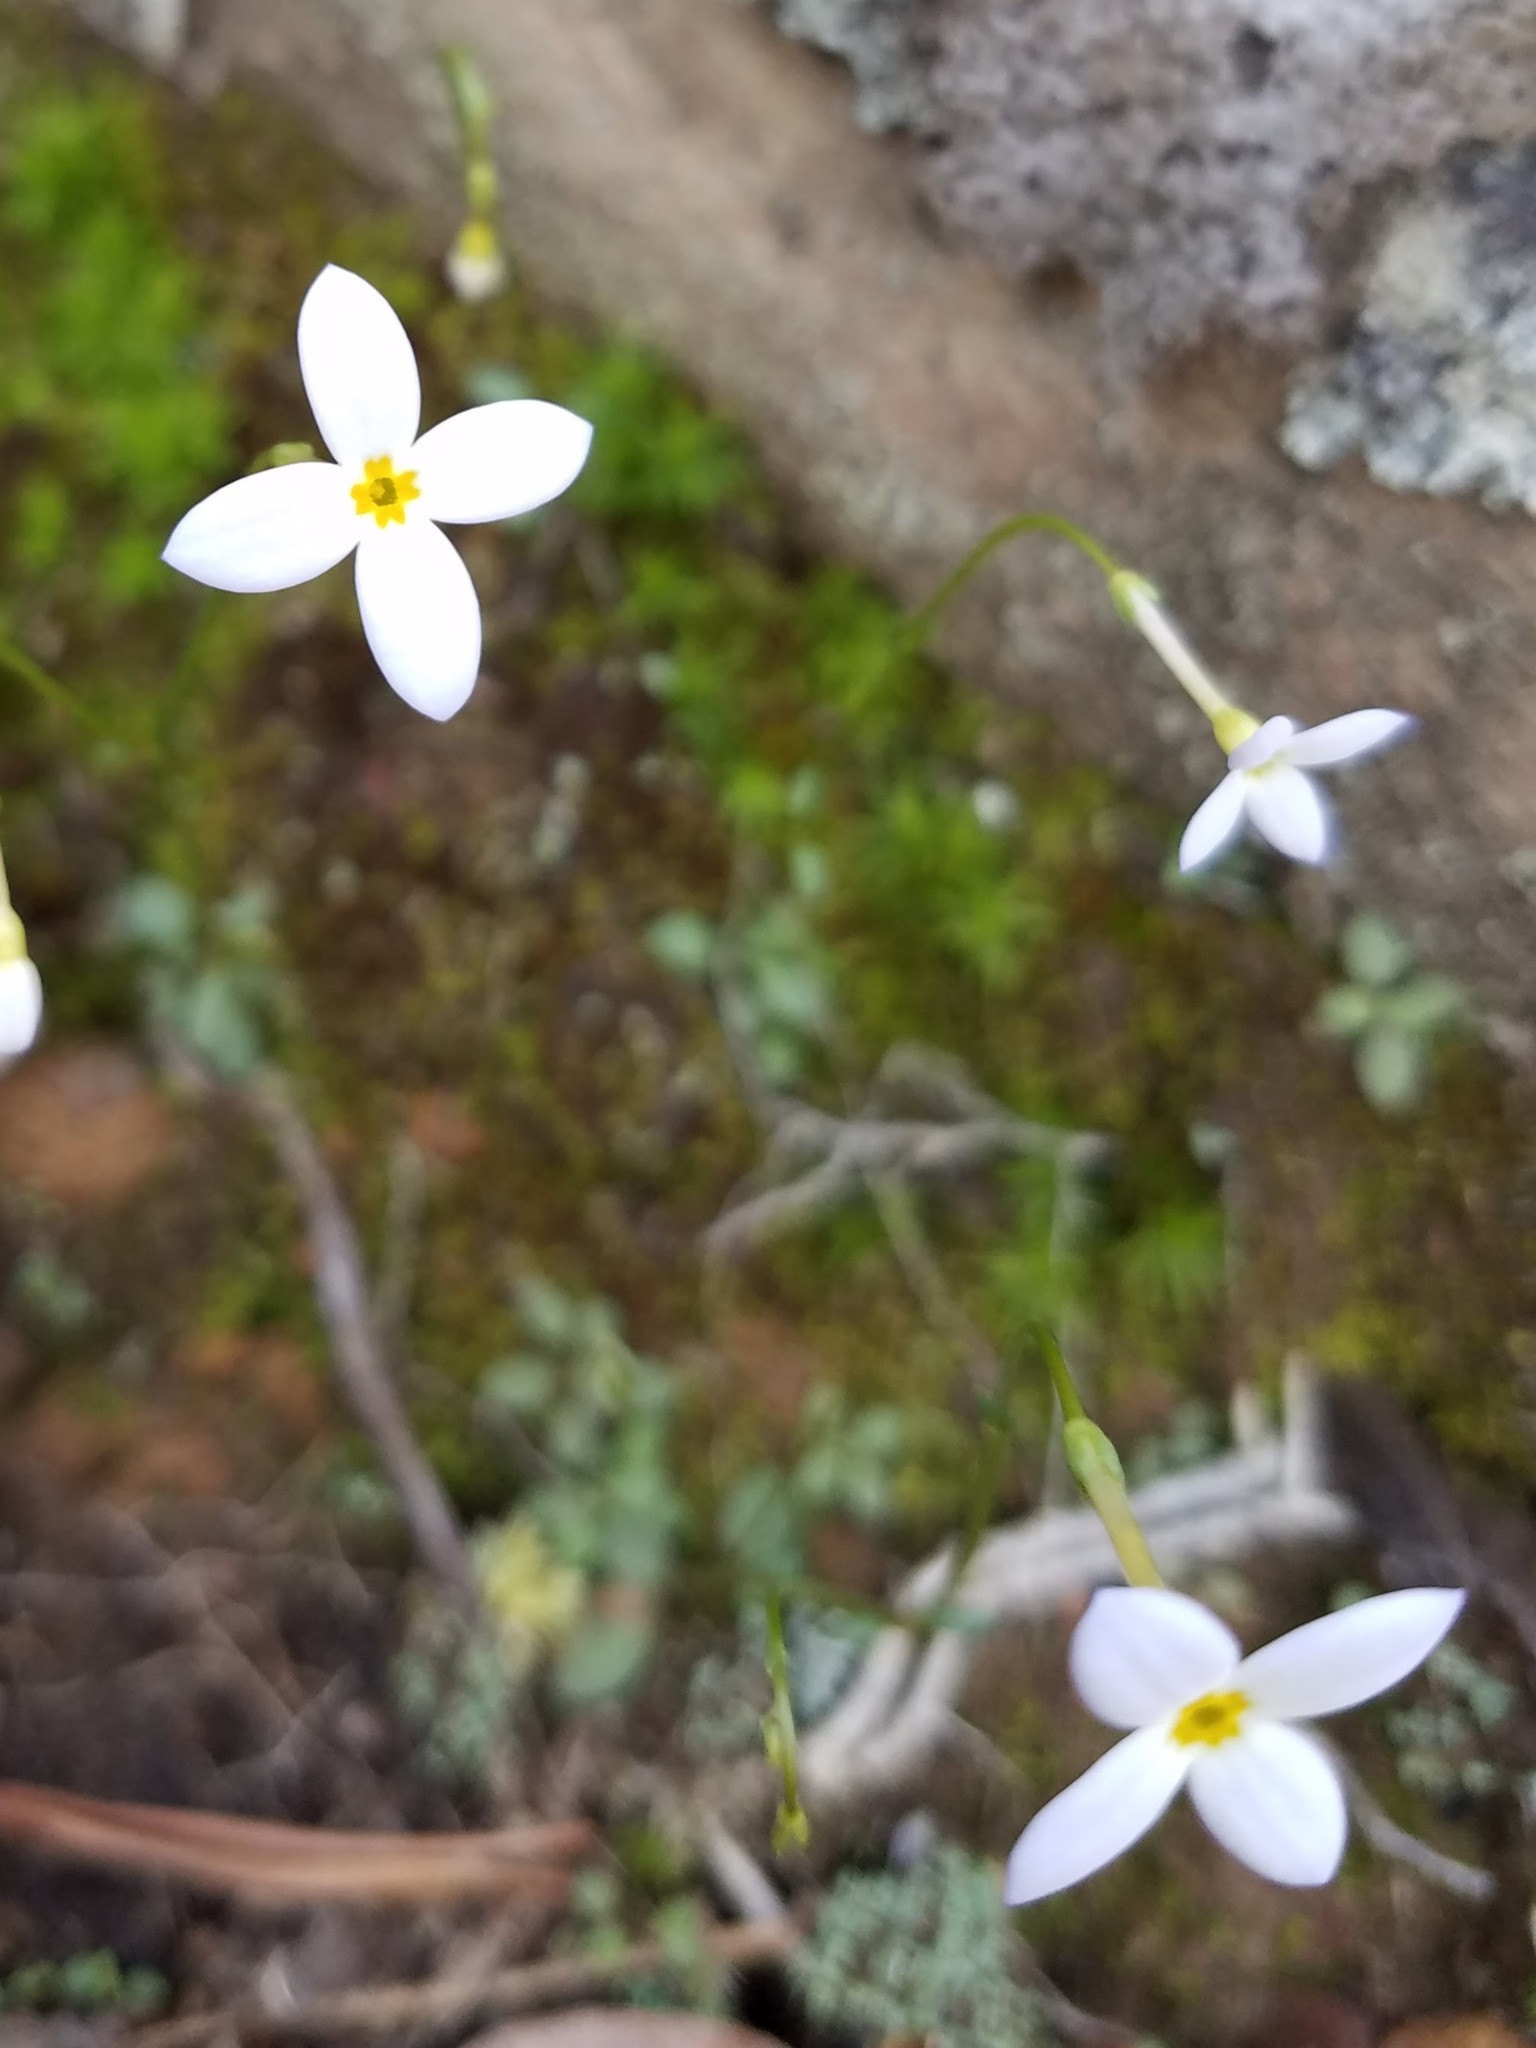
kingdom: Plantae
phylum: Tracheophyta
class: Magnoliopsida
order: Gentianales
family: Rubiaceae
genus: Houstonia
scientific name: Houstonia caerulea
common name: Bluets
